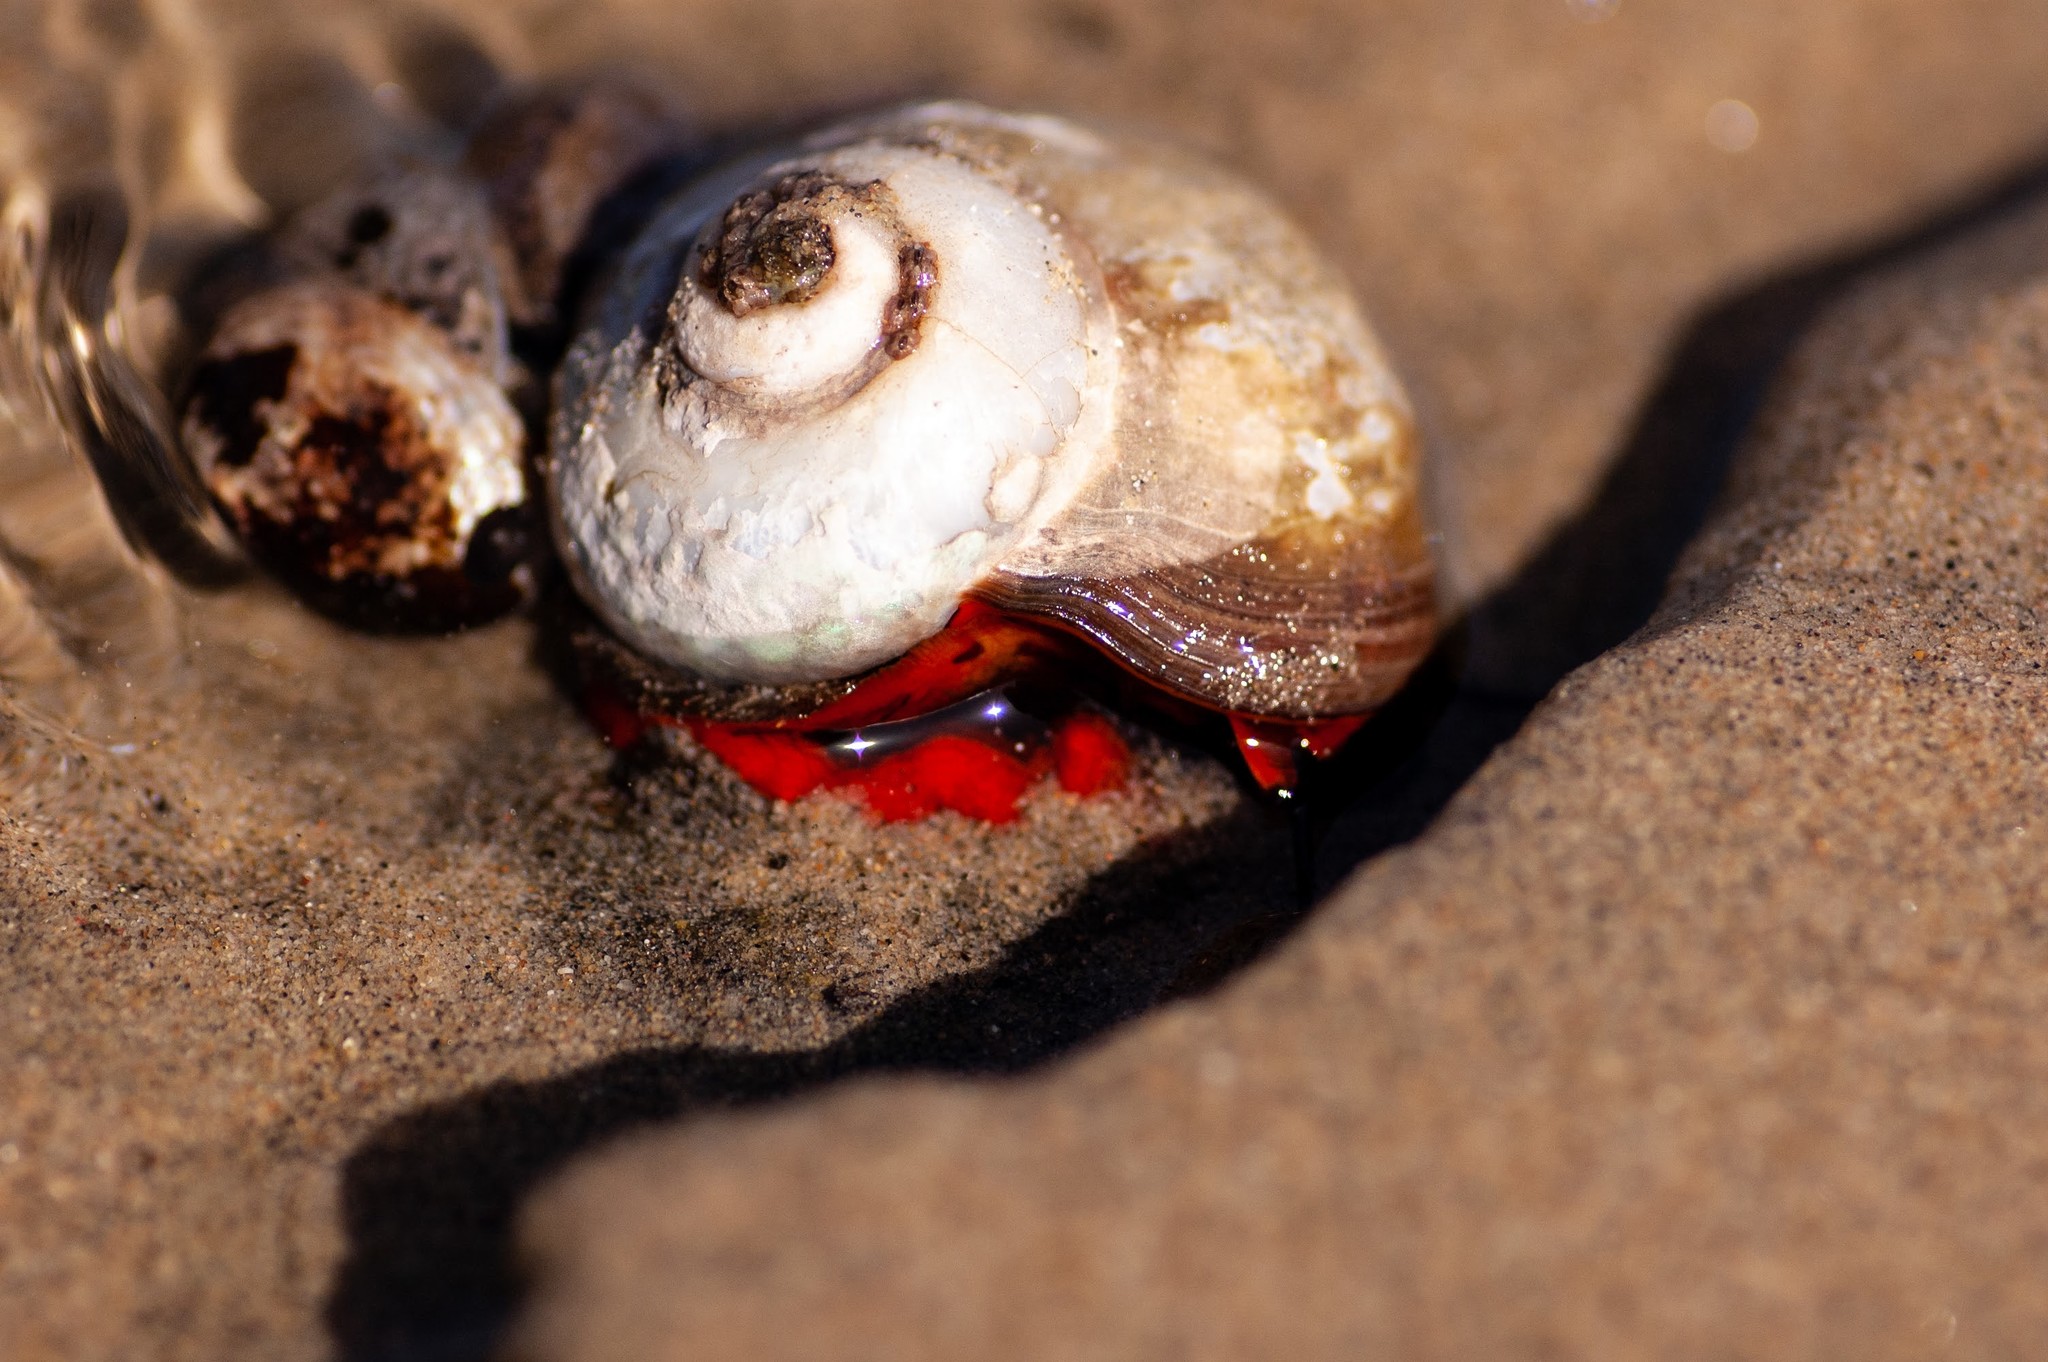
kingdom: Animalia
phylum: Mollusca
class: Gastropoda
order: Trochida
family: Tegulidae
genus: Norrisia
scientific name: Norrisia norrisii
